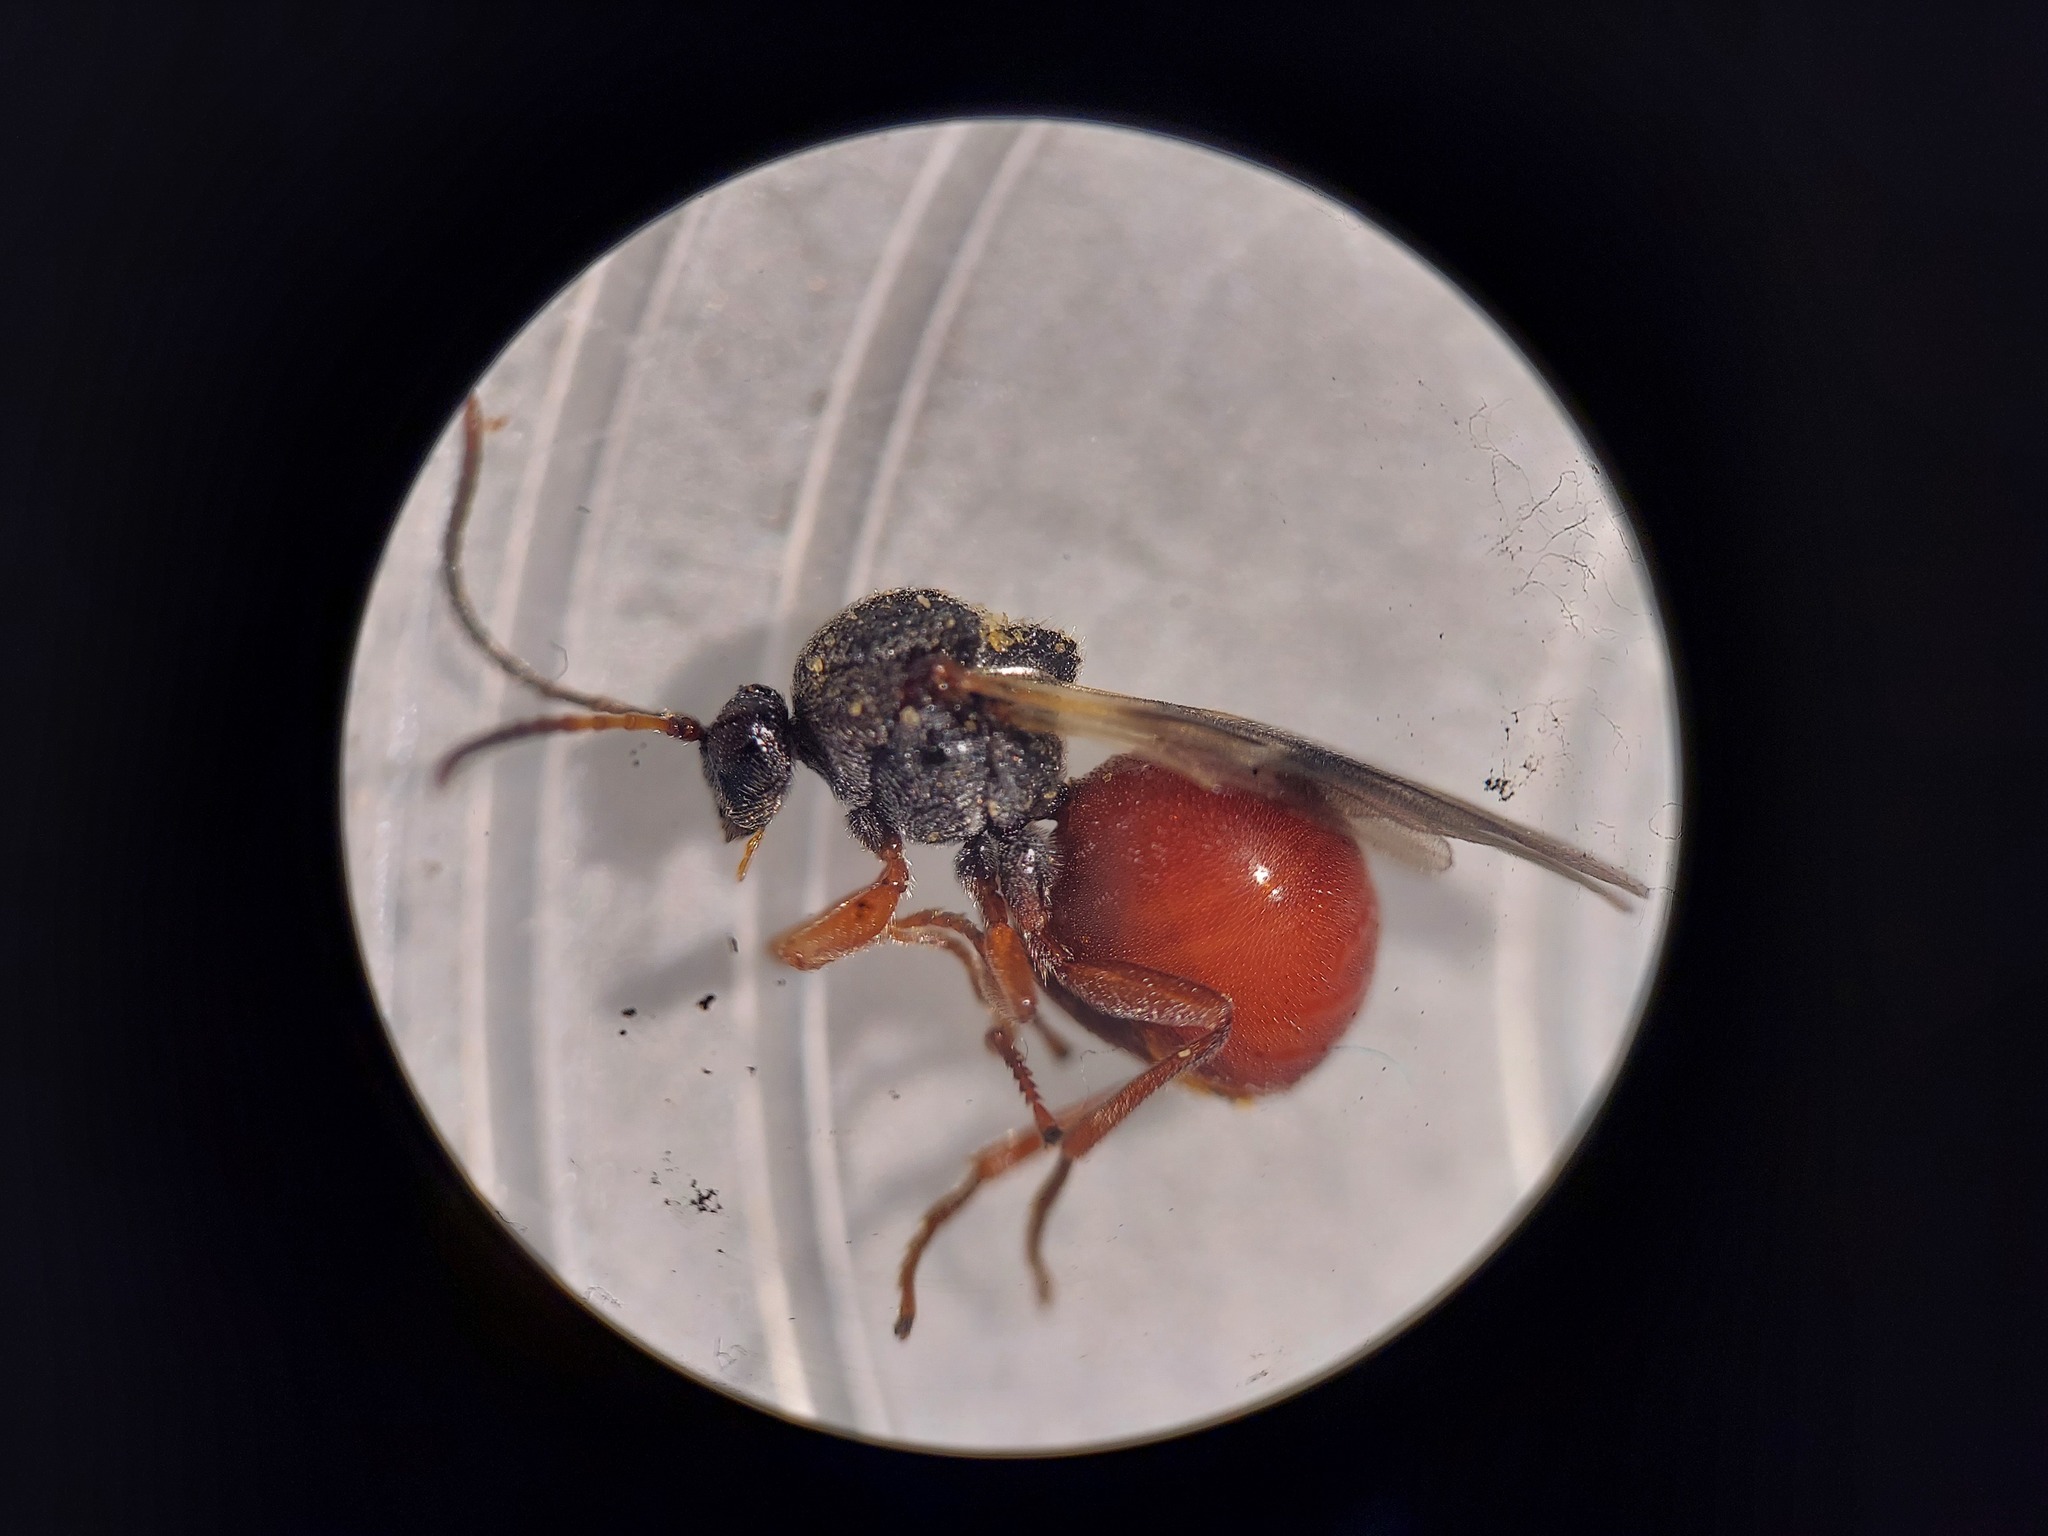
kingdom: Animalia
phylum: Arthropoda
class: Insecta
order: Hymenoptera
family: Cynipidae
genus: Amphibolips
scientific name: Amphibolips
